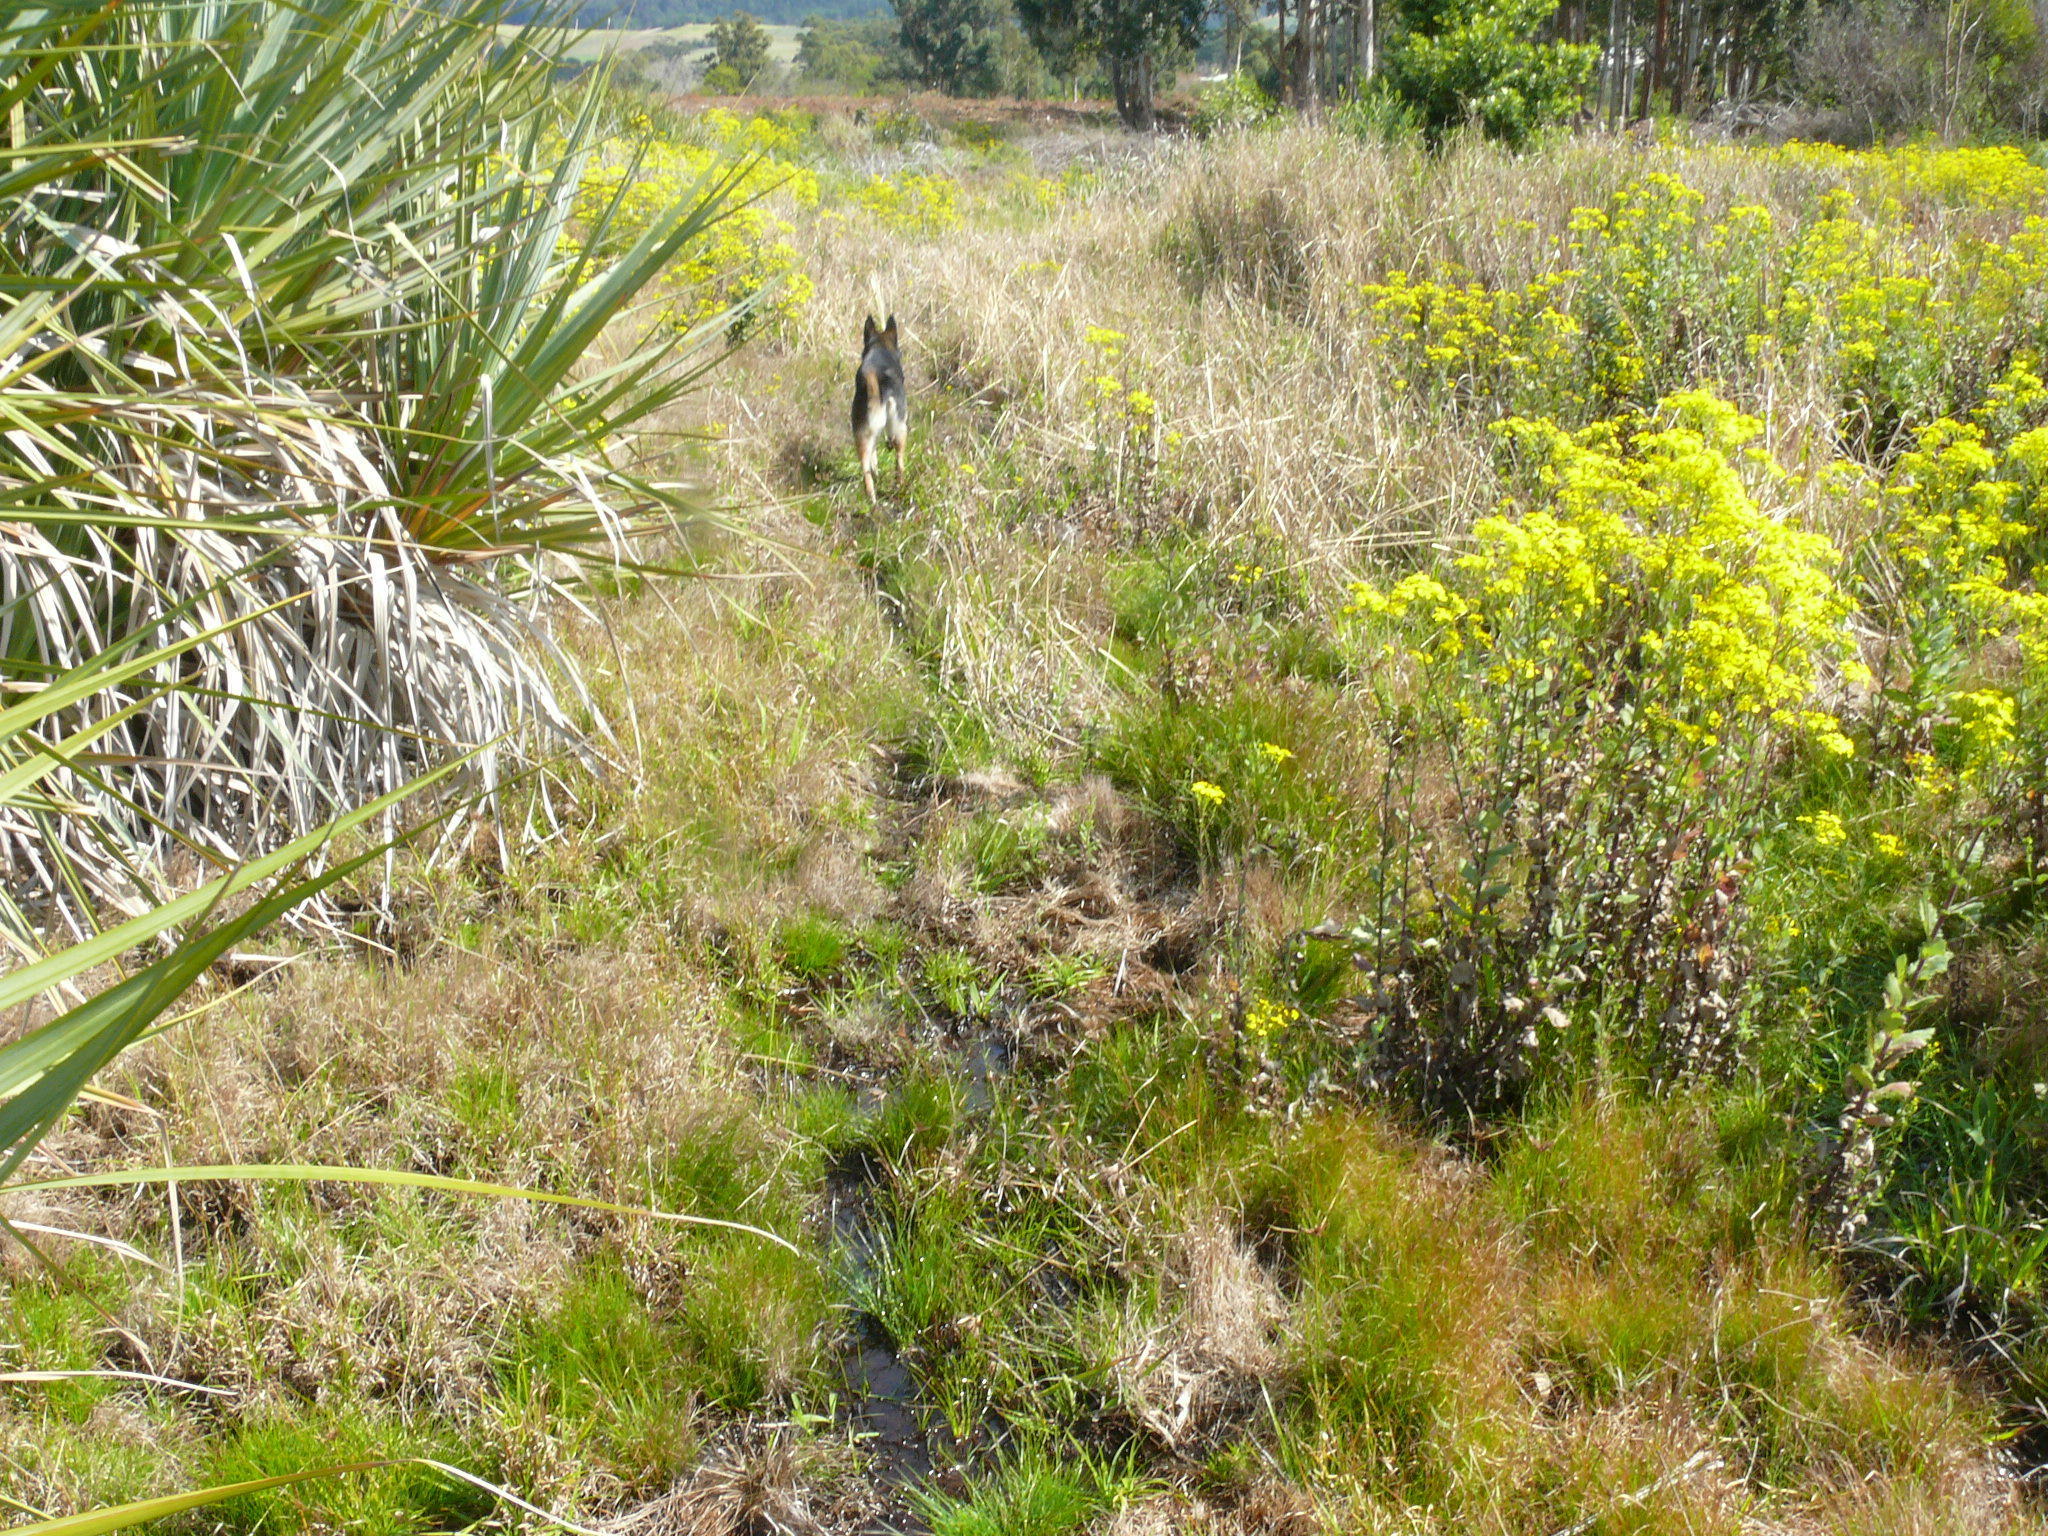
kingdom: Plantae
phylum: Tracheophyta
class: Magnoliopsida
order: Asterales
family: Asteraceae
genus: Senecio
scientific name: Senecio subcanescens
